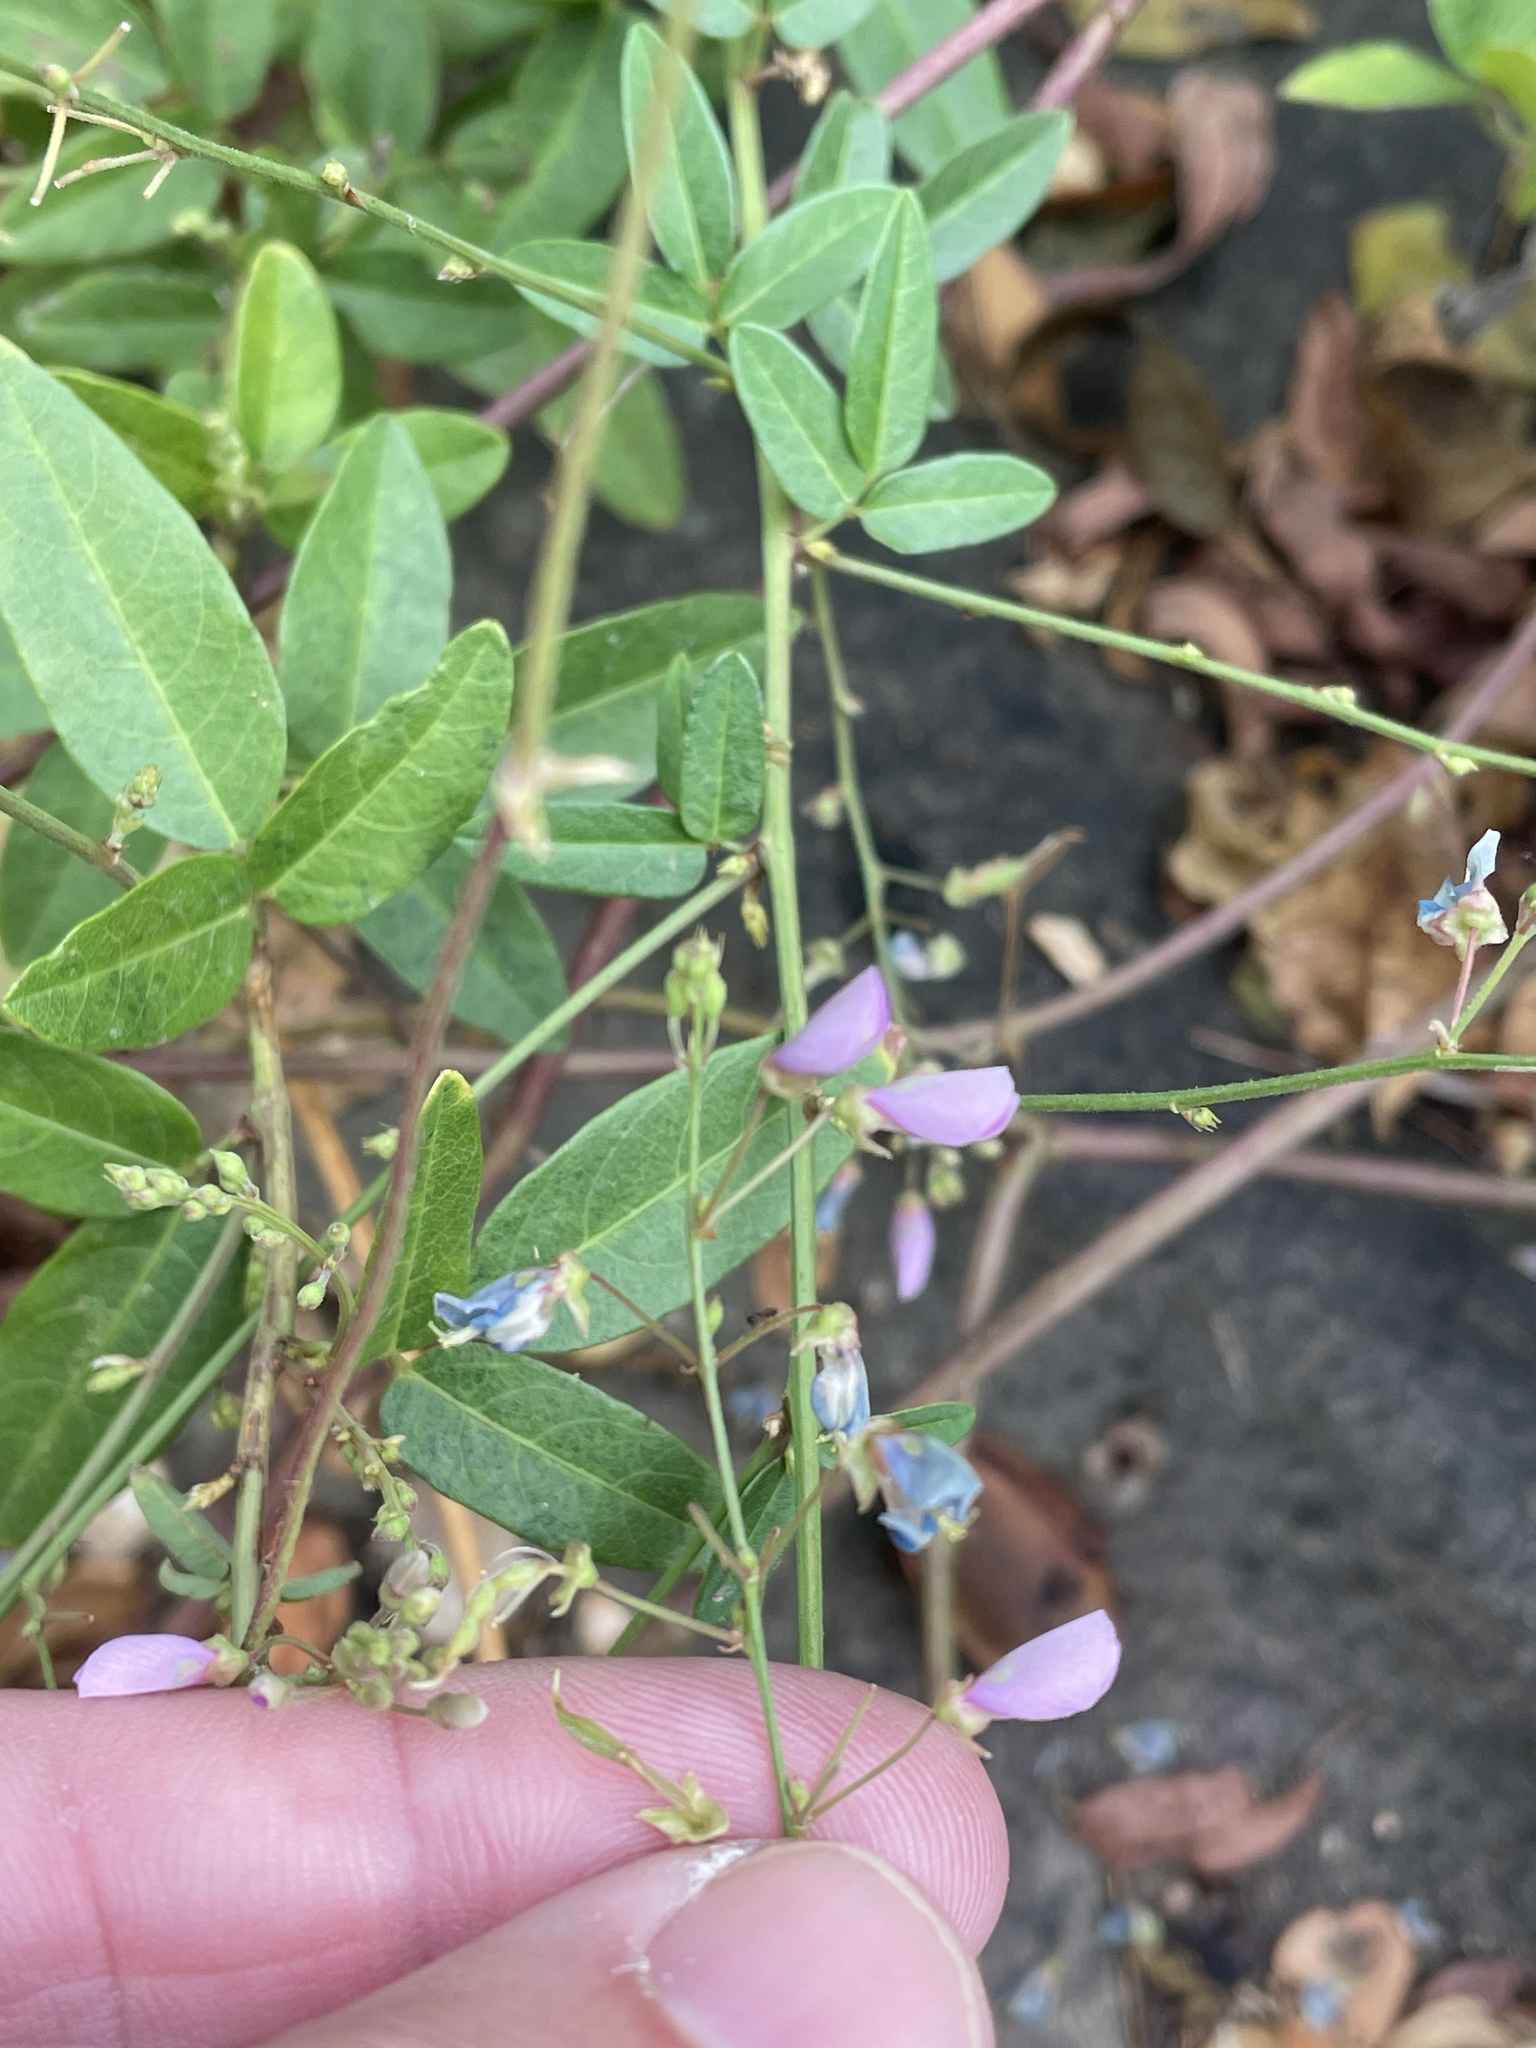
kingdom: Plantae
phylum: Tracheophyta
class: Magnoliopsida
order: Fabales
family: Fabaceae
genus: Desmodium
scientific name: Desmodium paniculatum
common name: Panicled tick-clover
